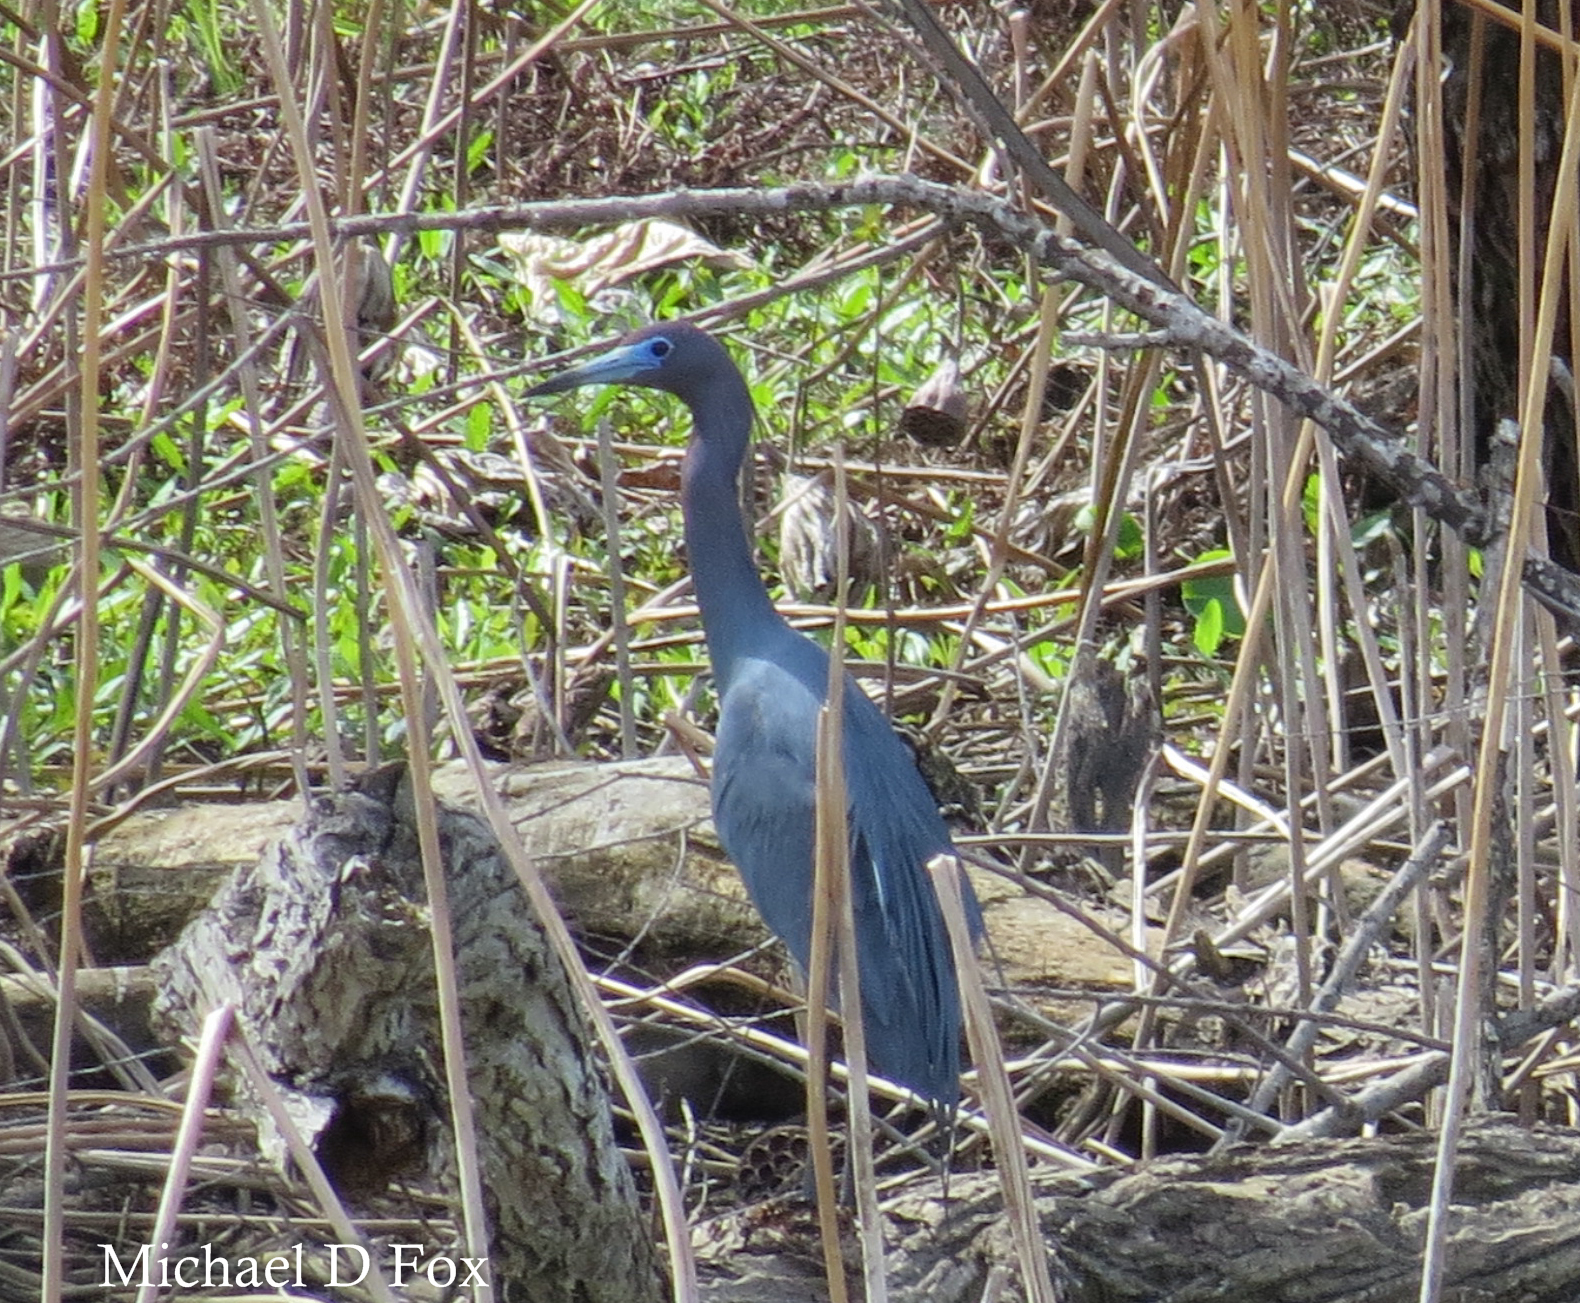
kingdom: Animalia
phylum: Chordata
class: Aves
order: Pelecaniformes
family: Ardeidae
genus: Egretta
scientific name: Egretta caerulea
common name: Little blue heron
